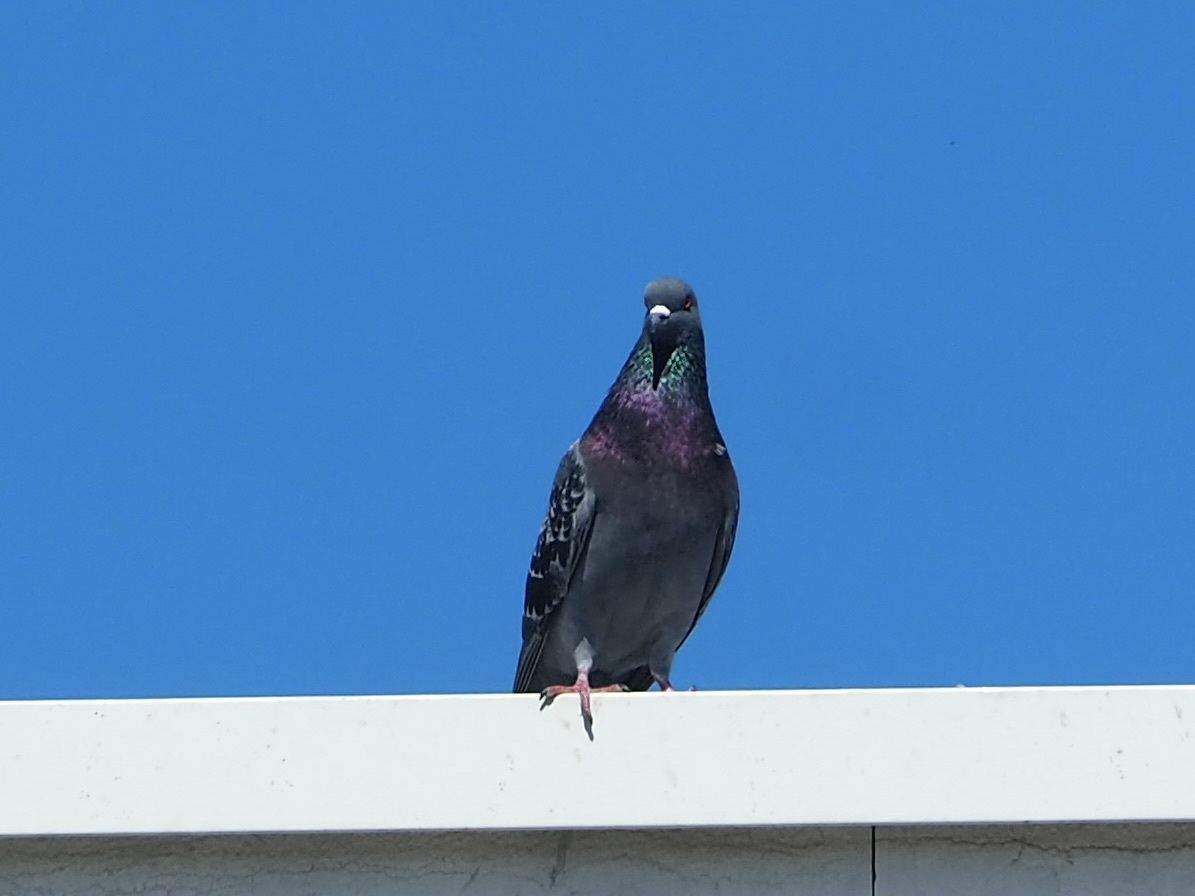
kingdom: Animalia
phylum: Chordata
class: Aves
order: Columbiformes
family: Columbidae
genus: Columba
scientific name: Columba livia
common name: Rock pigeon
